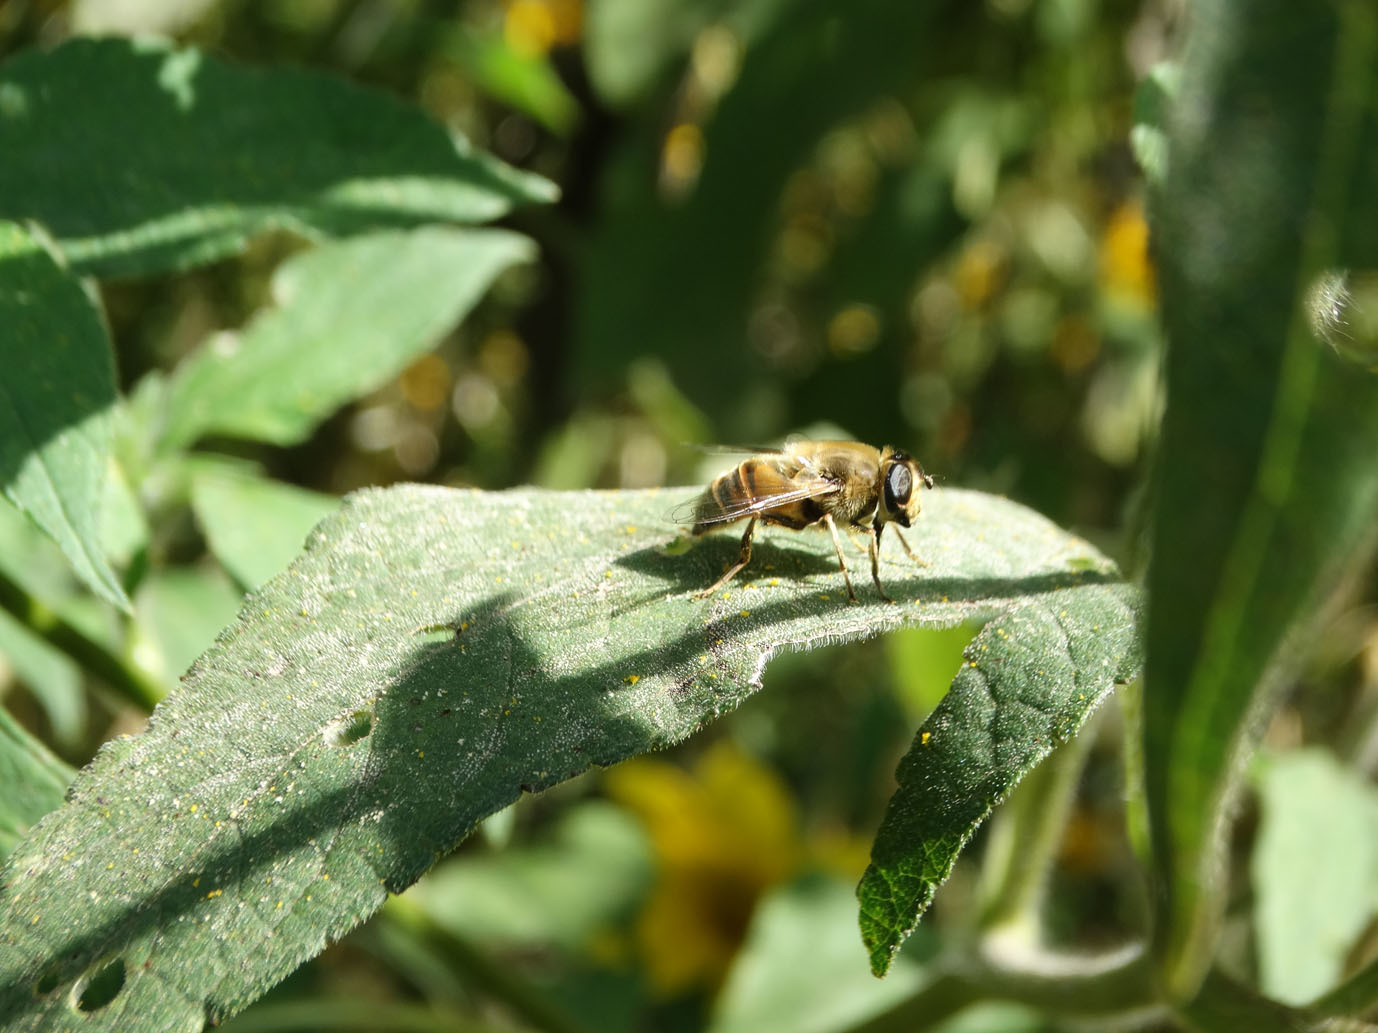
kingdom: Animalia
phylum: Arthropoda
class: Insecta
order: Diptera
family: Syrphidae
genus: Eristalis
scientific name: Eristalis tenax
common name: Drone fly
